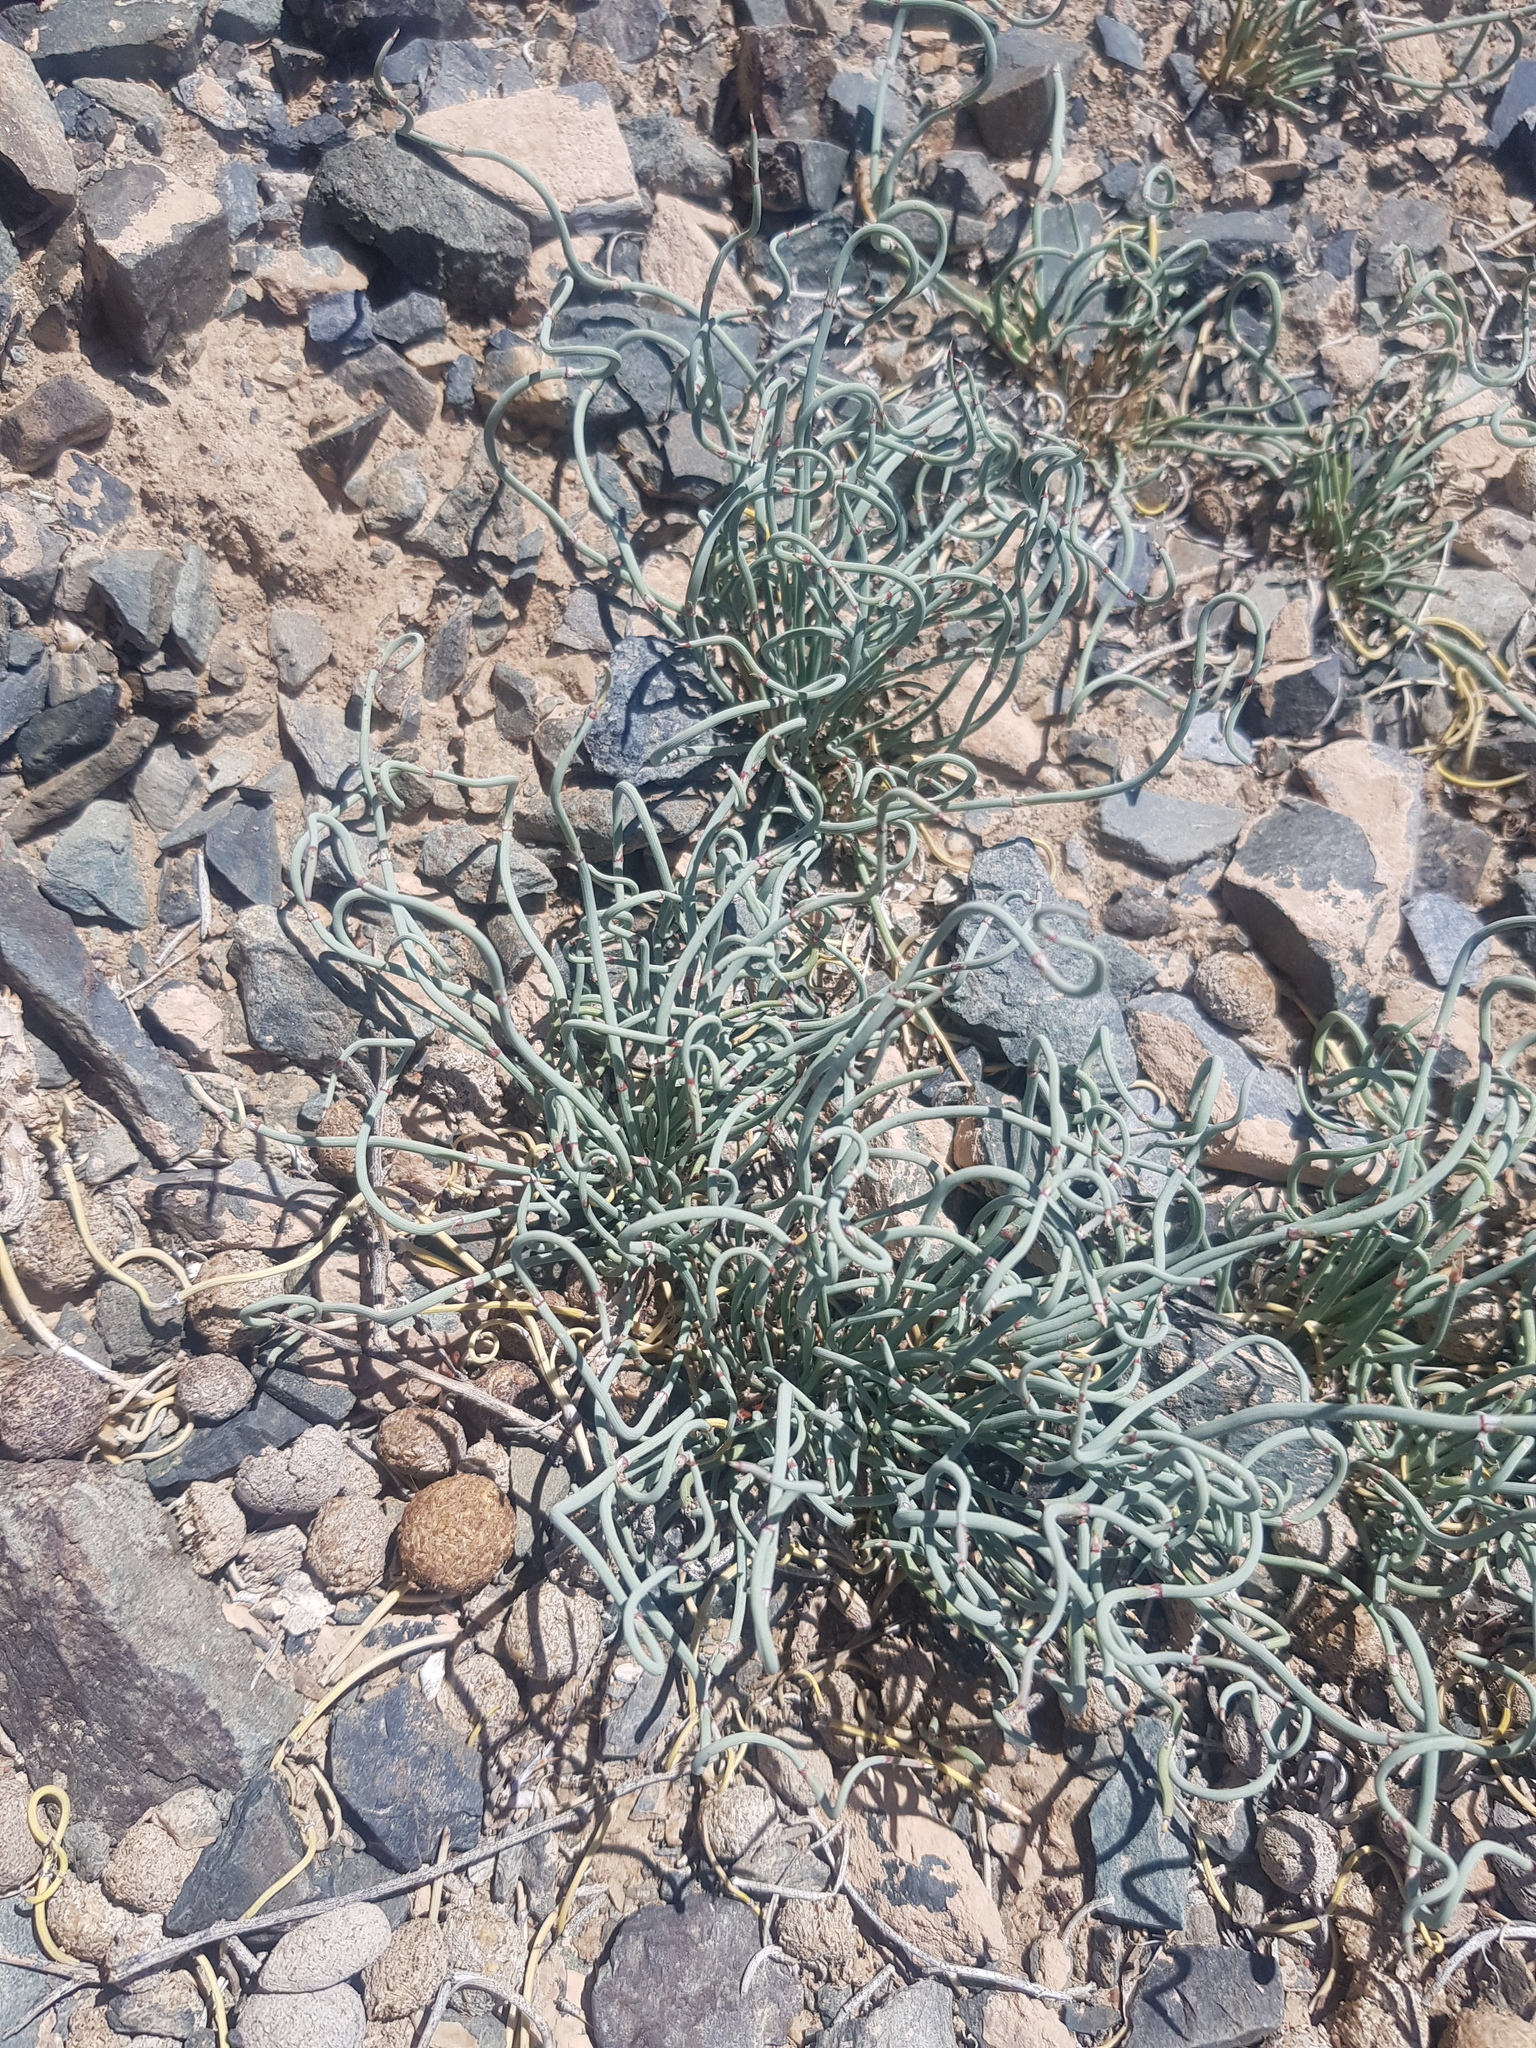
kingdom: Plantae
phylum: Tracheophyta
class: Gnetopsida
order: Ephedrales
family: Ephedraceae
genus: Ephedra
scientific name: Ephedra equisetina
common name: Mongolian ephedra
